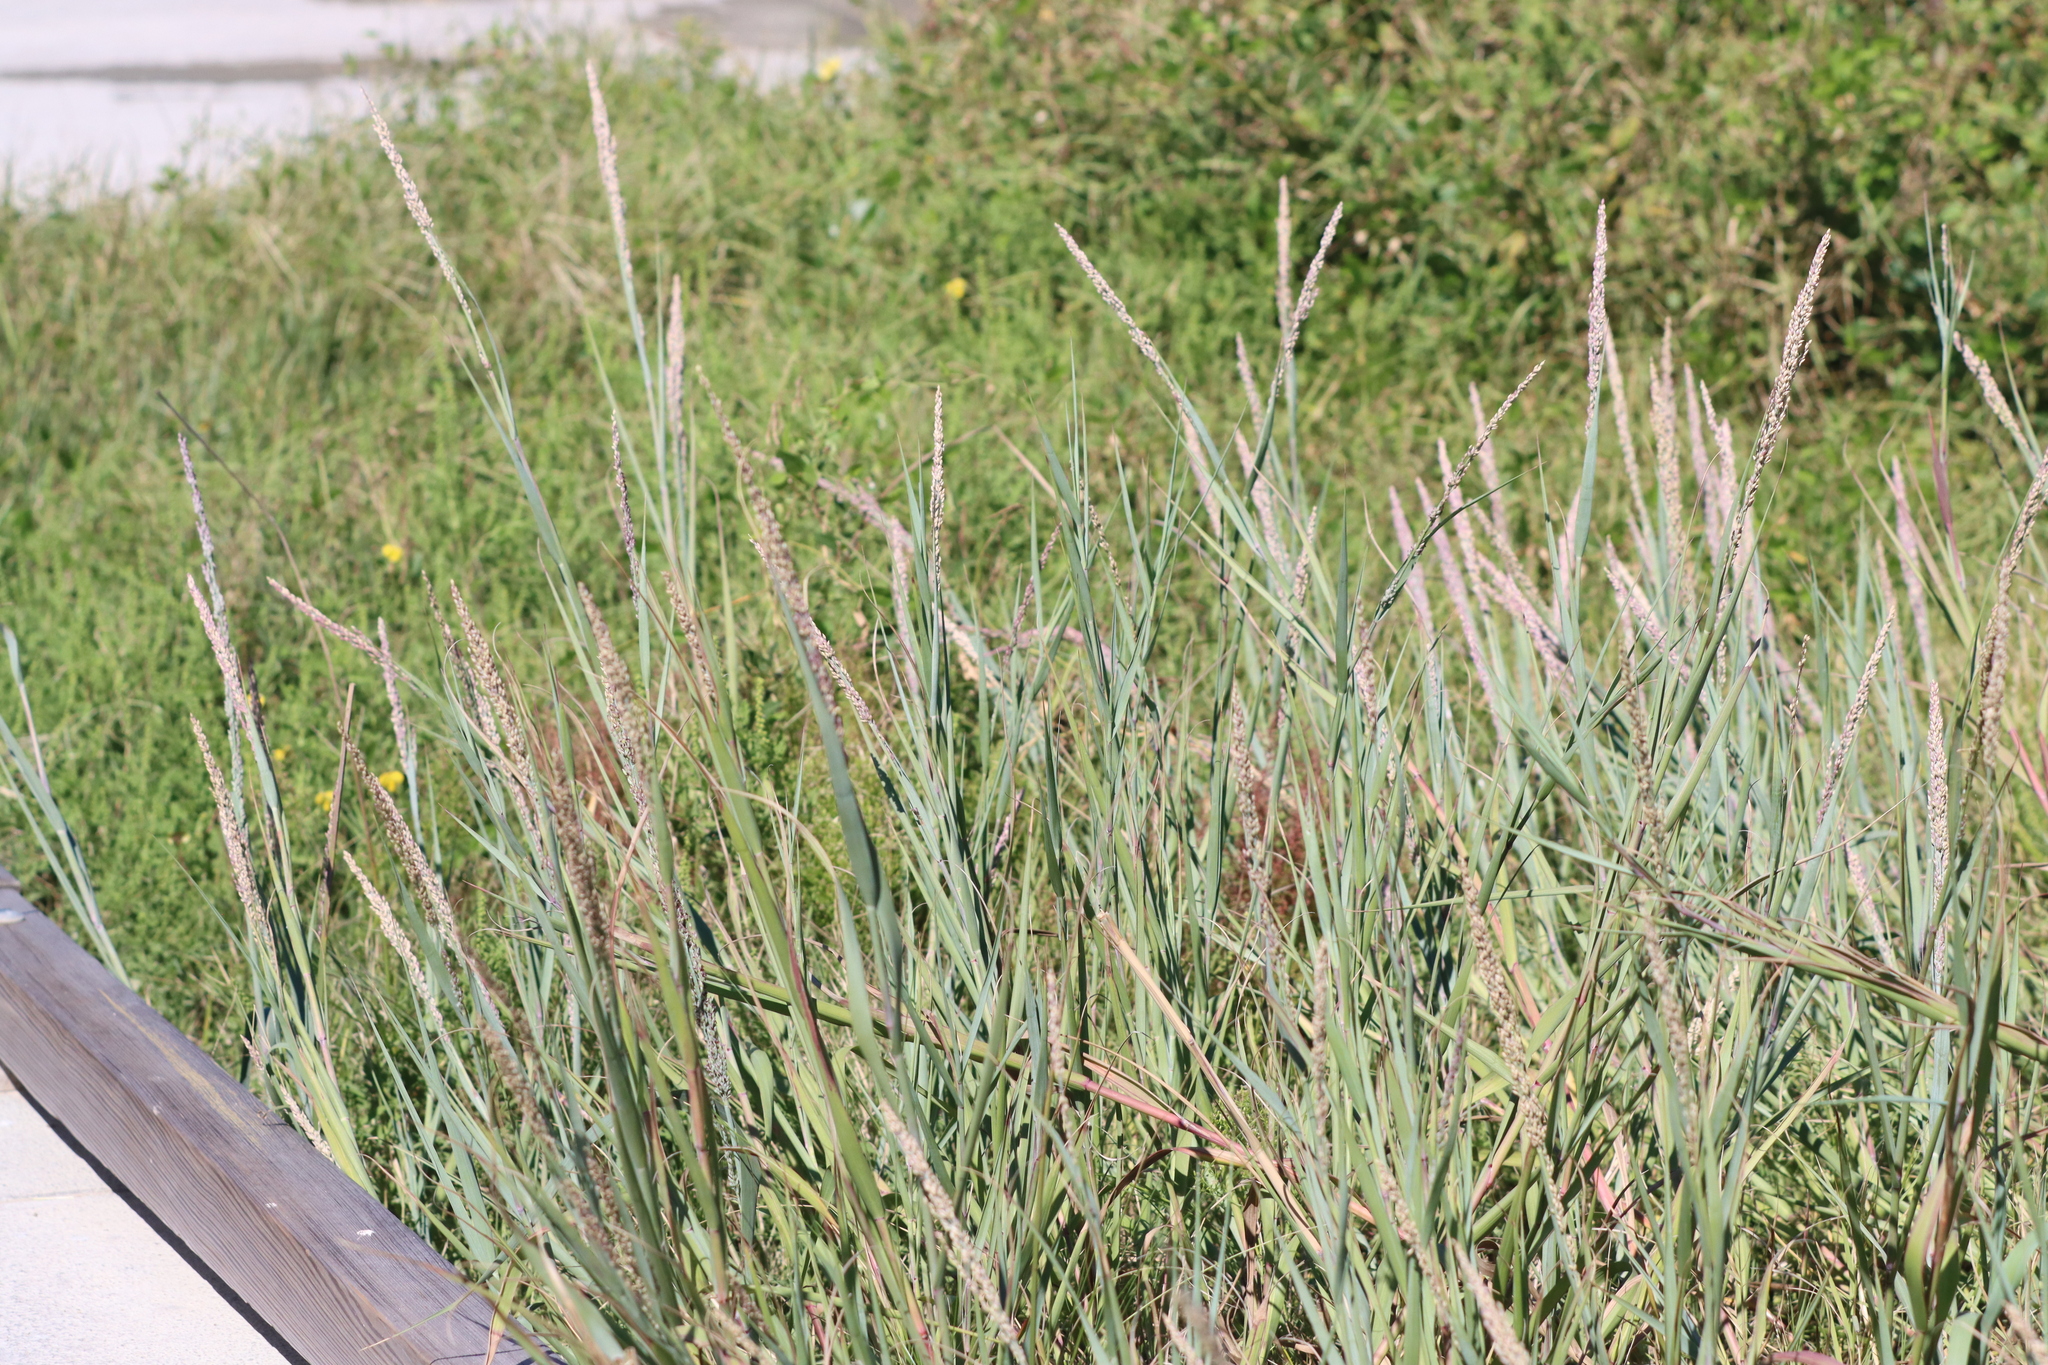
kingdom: Plantae
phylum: Tracheophyta
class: Liliopsida
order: Poales
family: Poaceae
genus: Panicum
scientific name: Panicum amarum
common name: Bitter panicum
